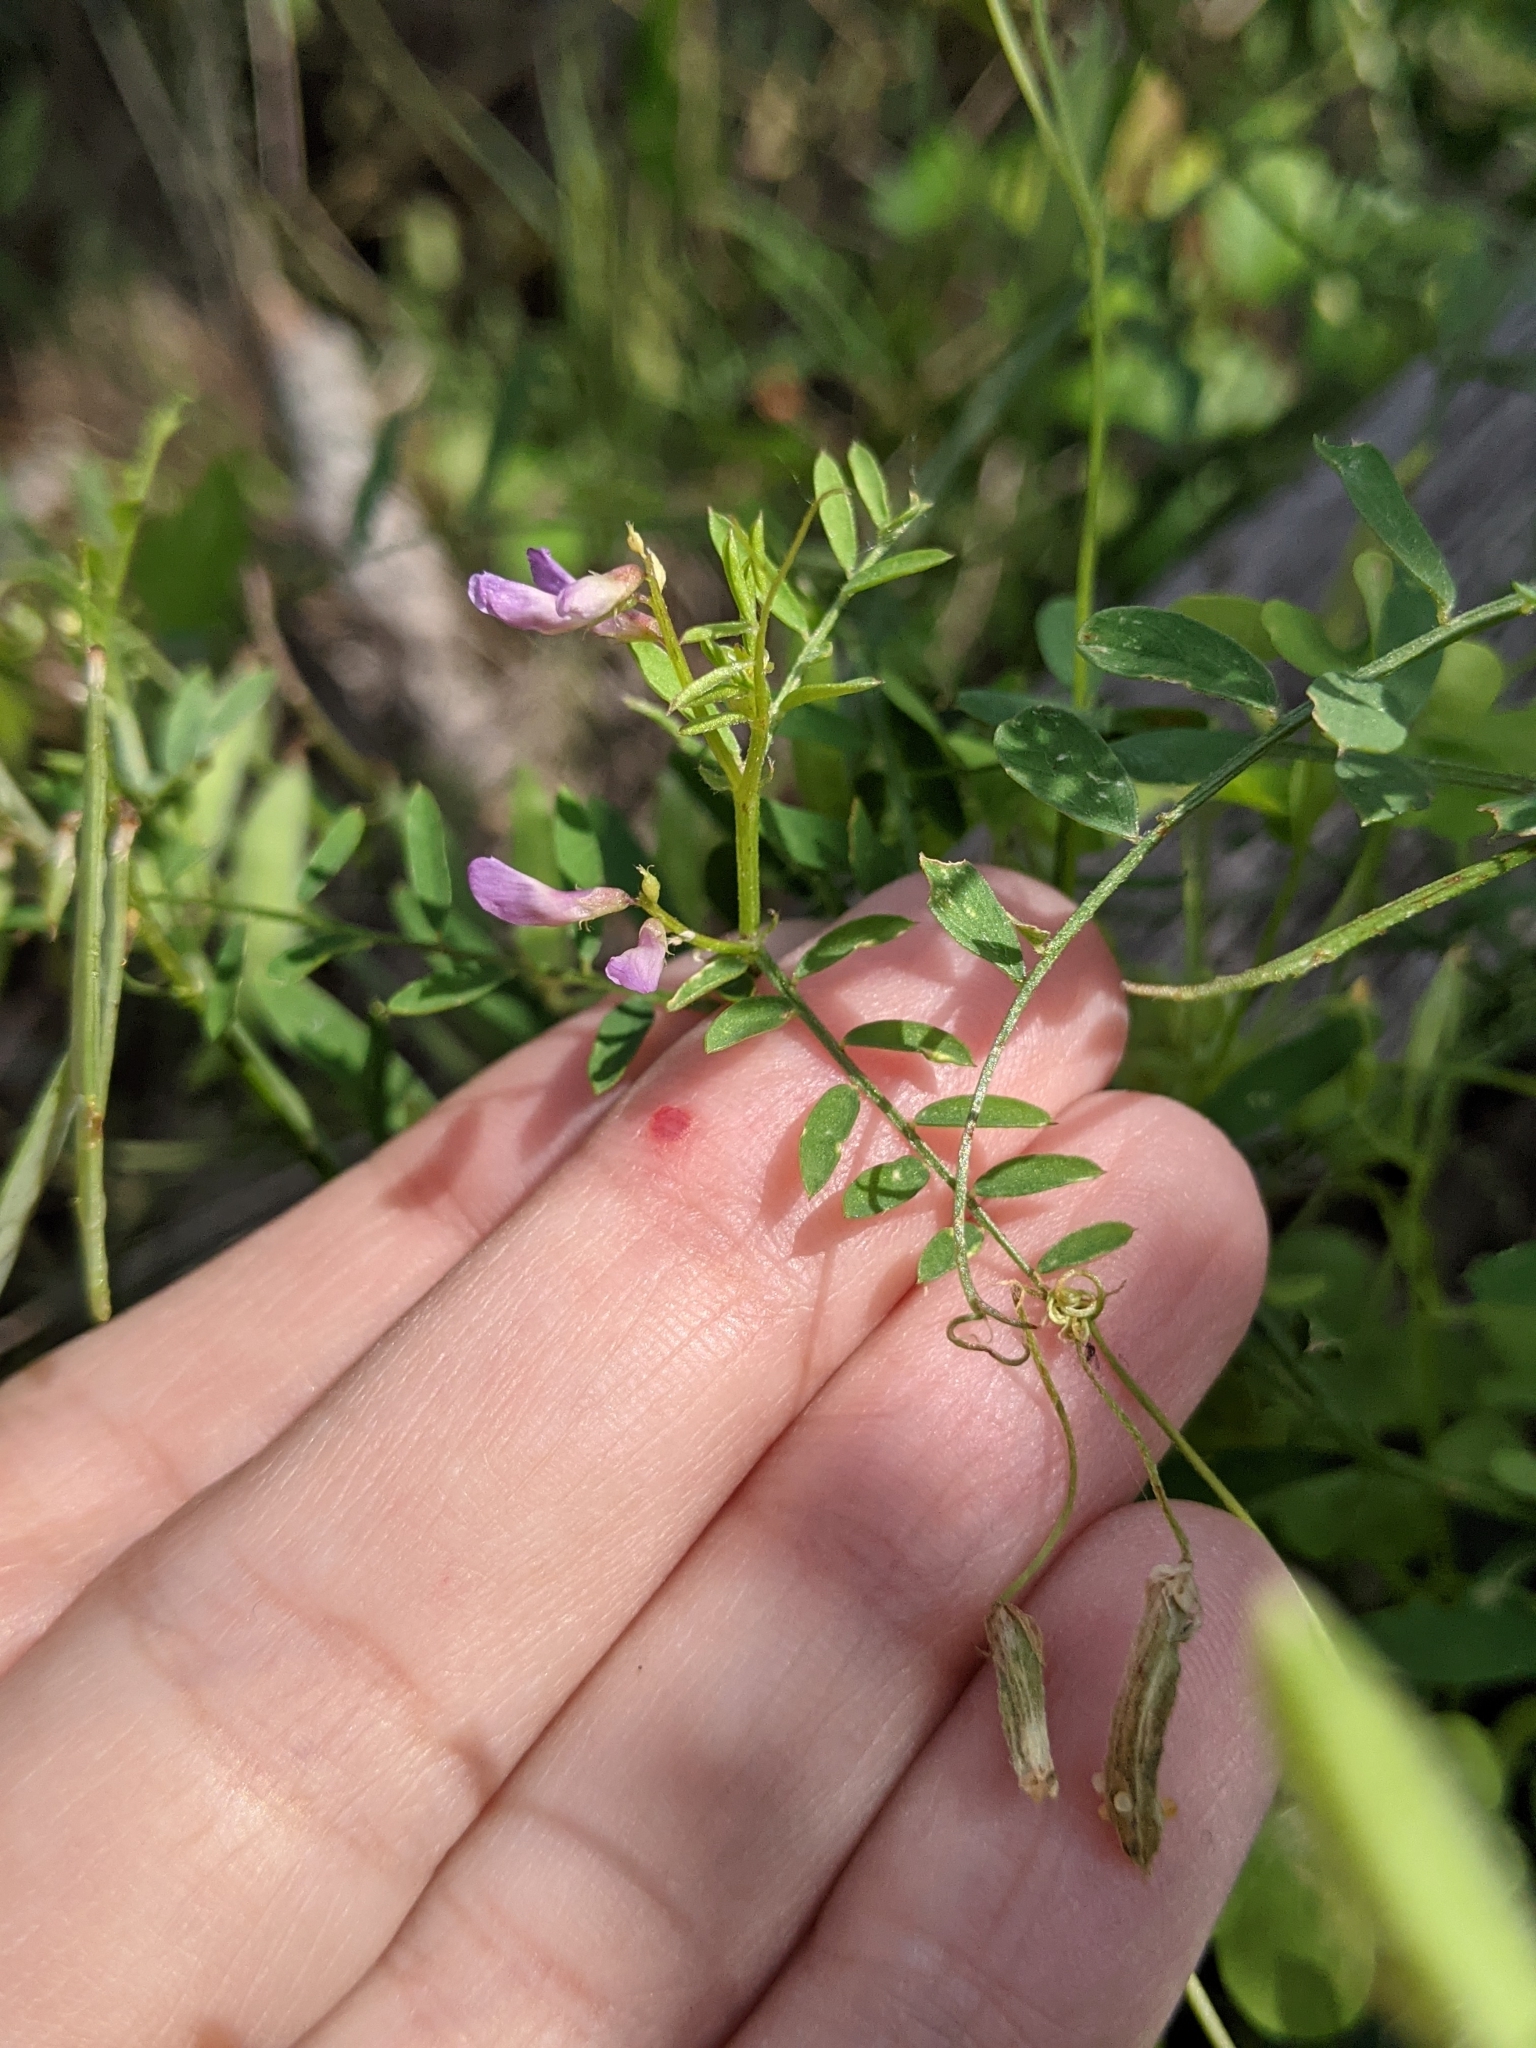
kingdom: Plantae
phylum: Tracheophyta
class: Magnoliopsida
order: Fabales
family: Fabaceae
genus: Vicia
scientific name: Vicia ludoviciana
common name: Louisiana vetch
